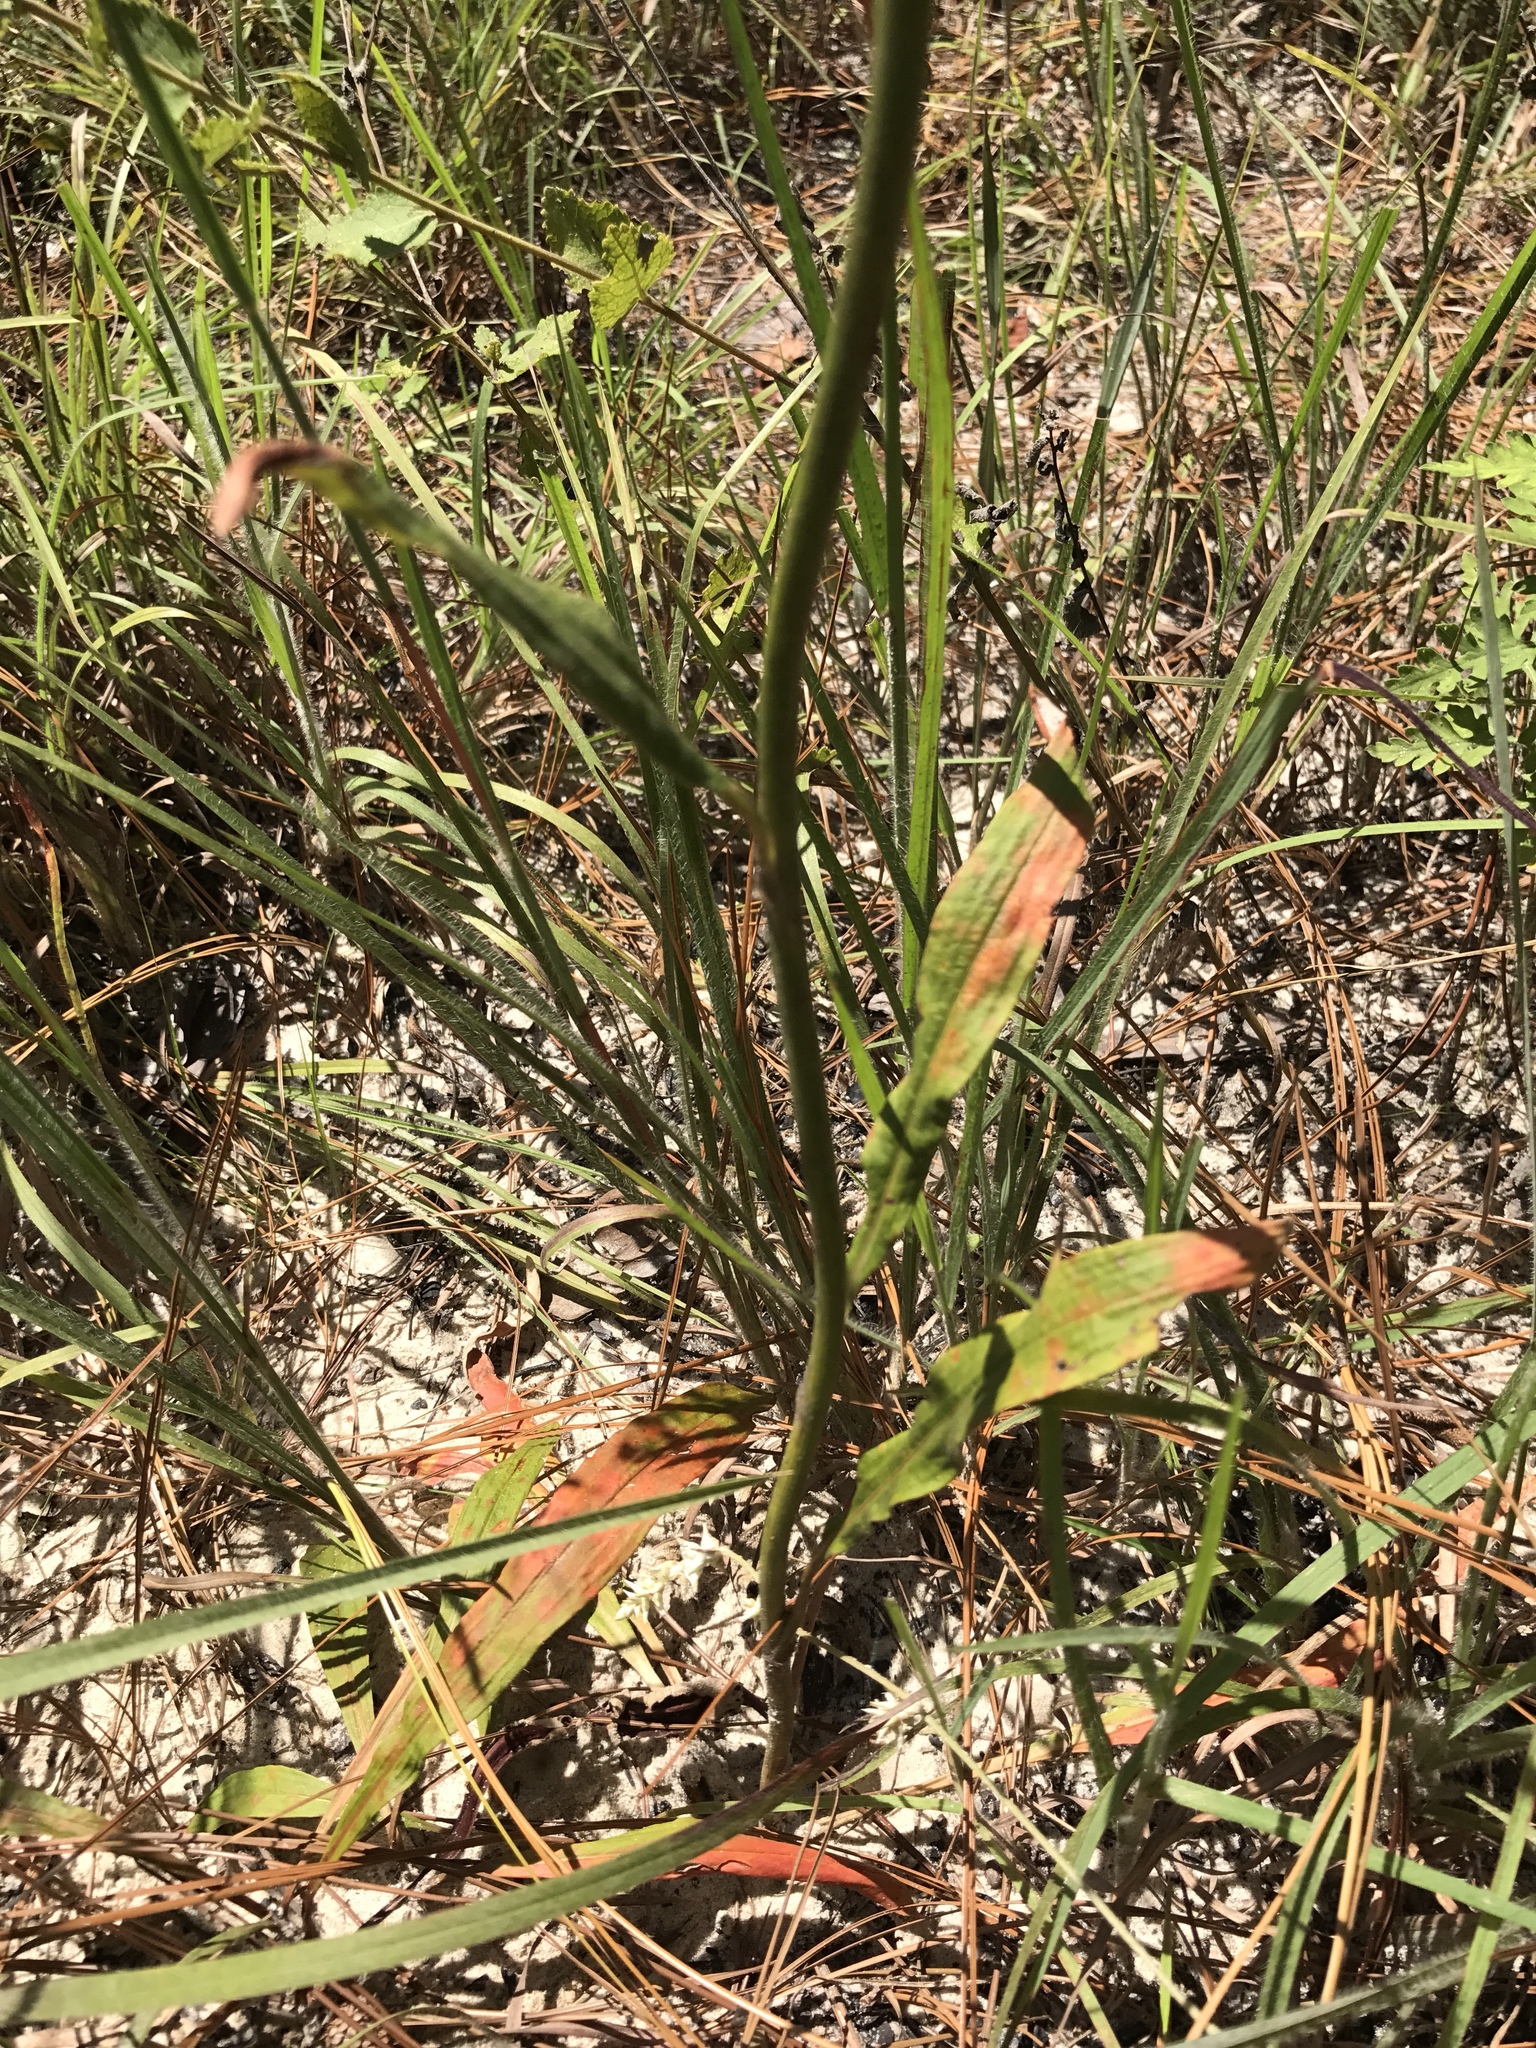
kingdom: Plantae
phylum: Tracheophyta
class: Magnoliopsida
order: Caryophyllales
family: Polygonaceae
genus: Eriogonum
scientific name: Eriogonum longifolium
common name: Longleaf wild buckwheat
